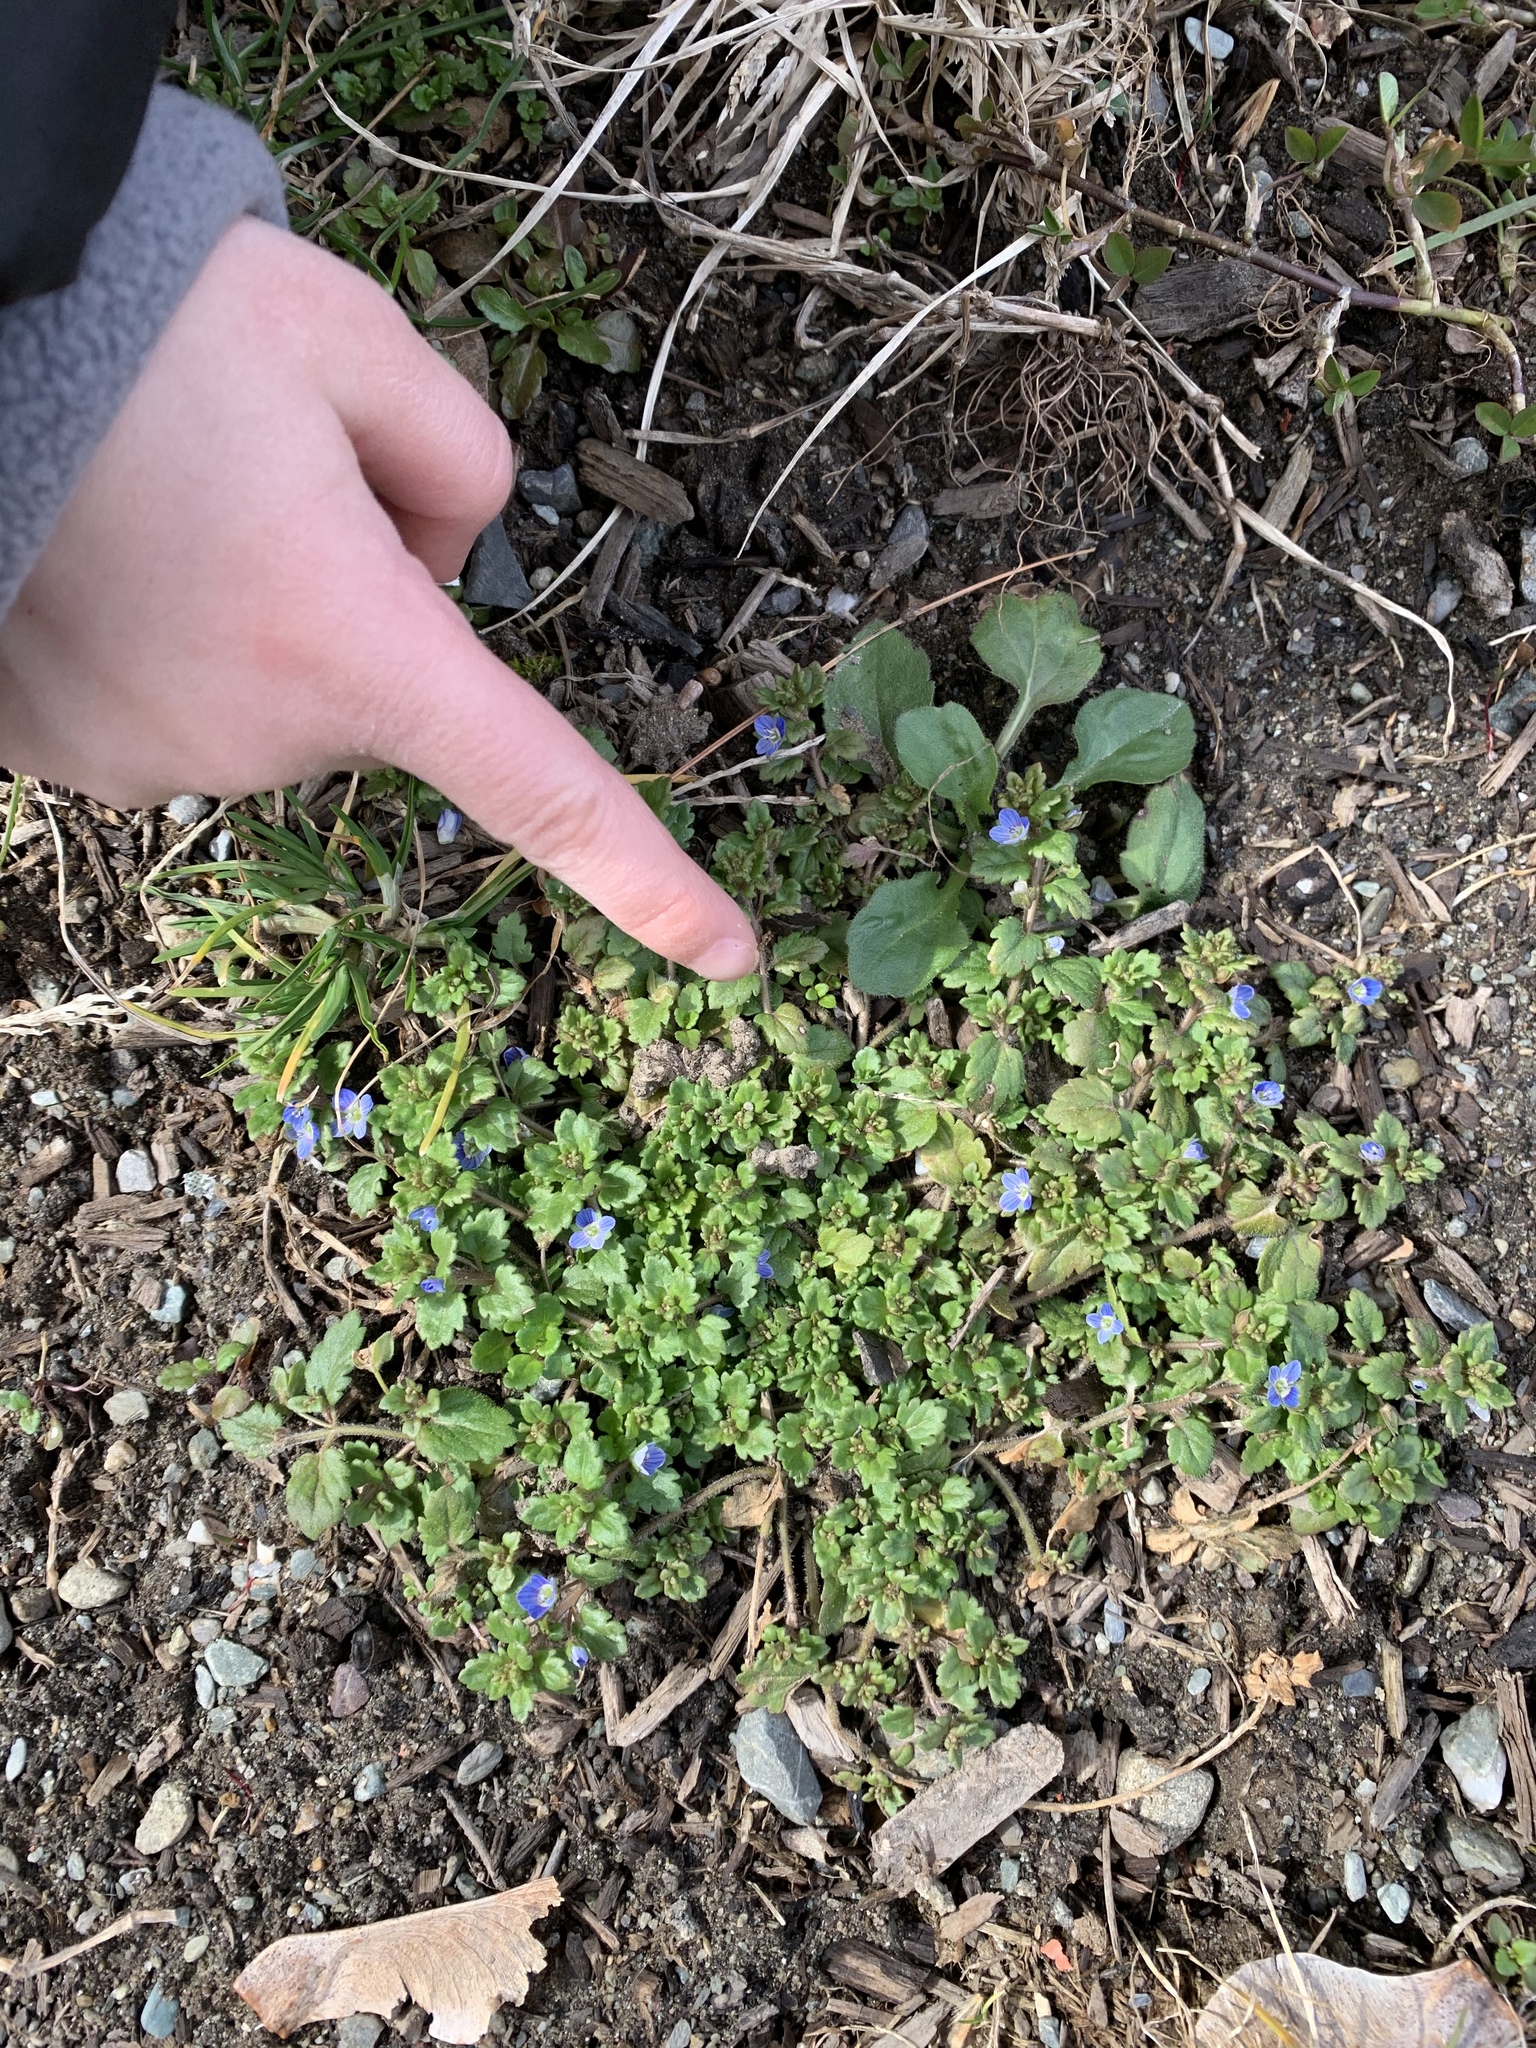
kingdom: Plantae
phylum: Tracheophyta
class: Magnoliopsida
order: Lamiales
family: Plantaginaceae
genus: Veronica
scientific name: Veronica polita
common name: Grey field-speedwell
